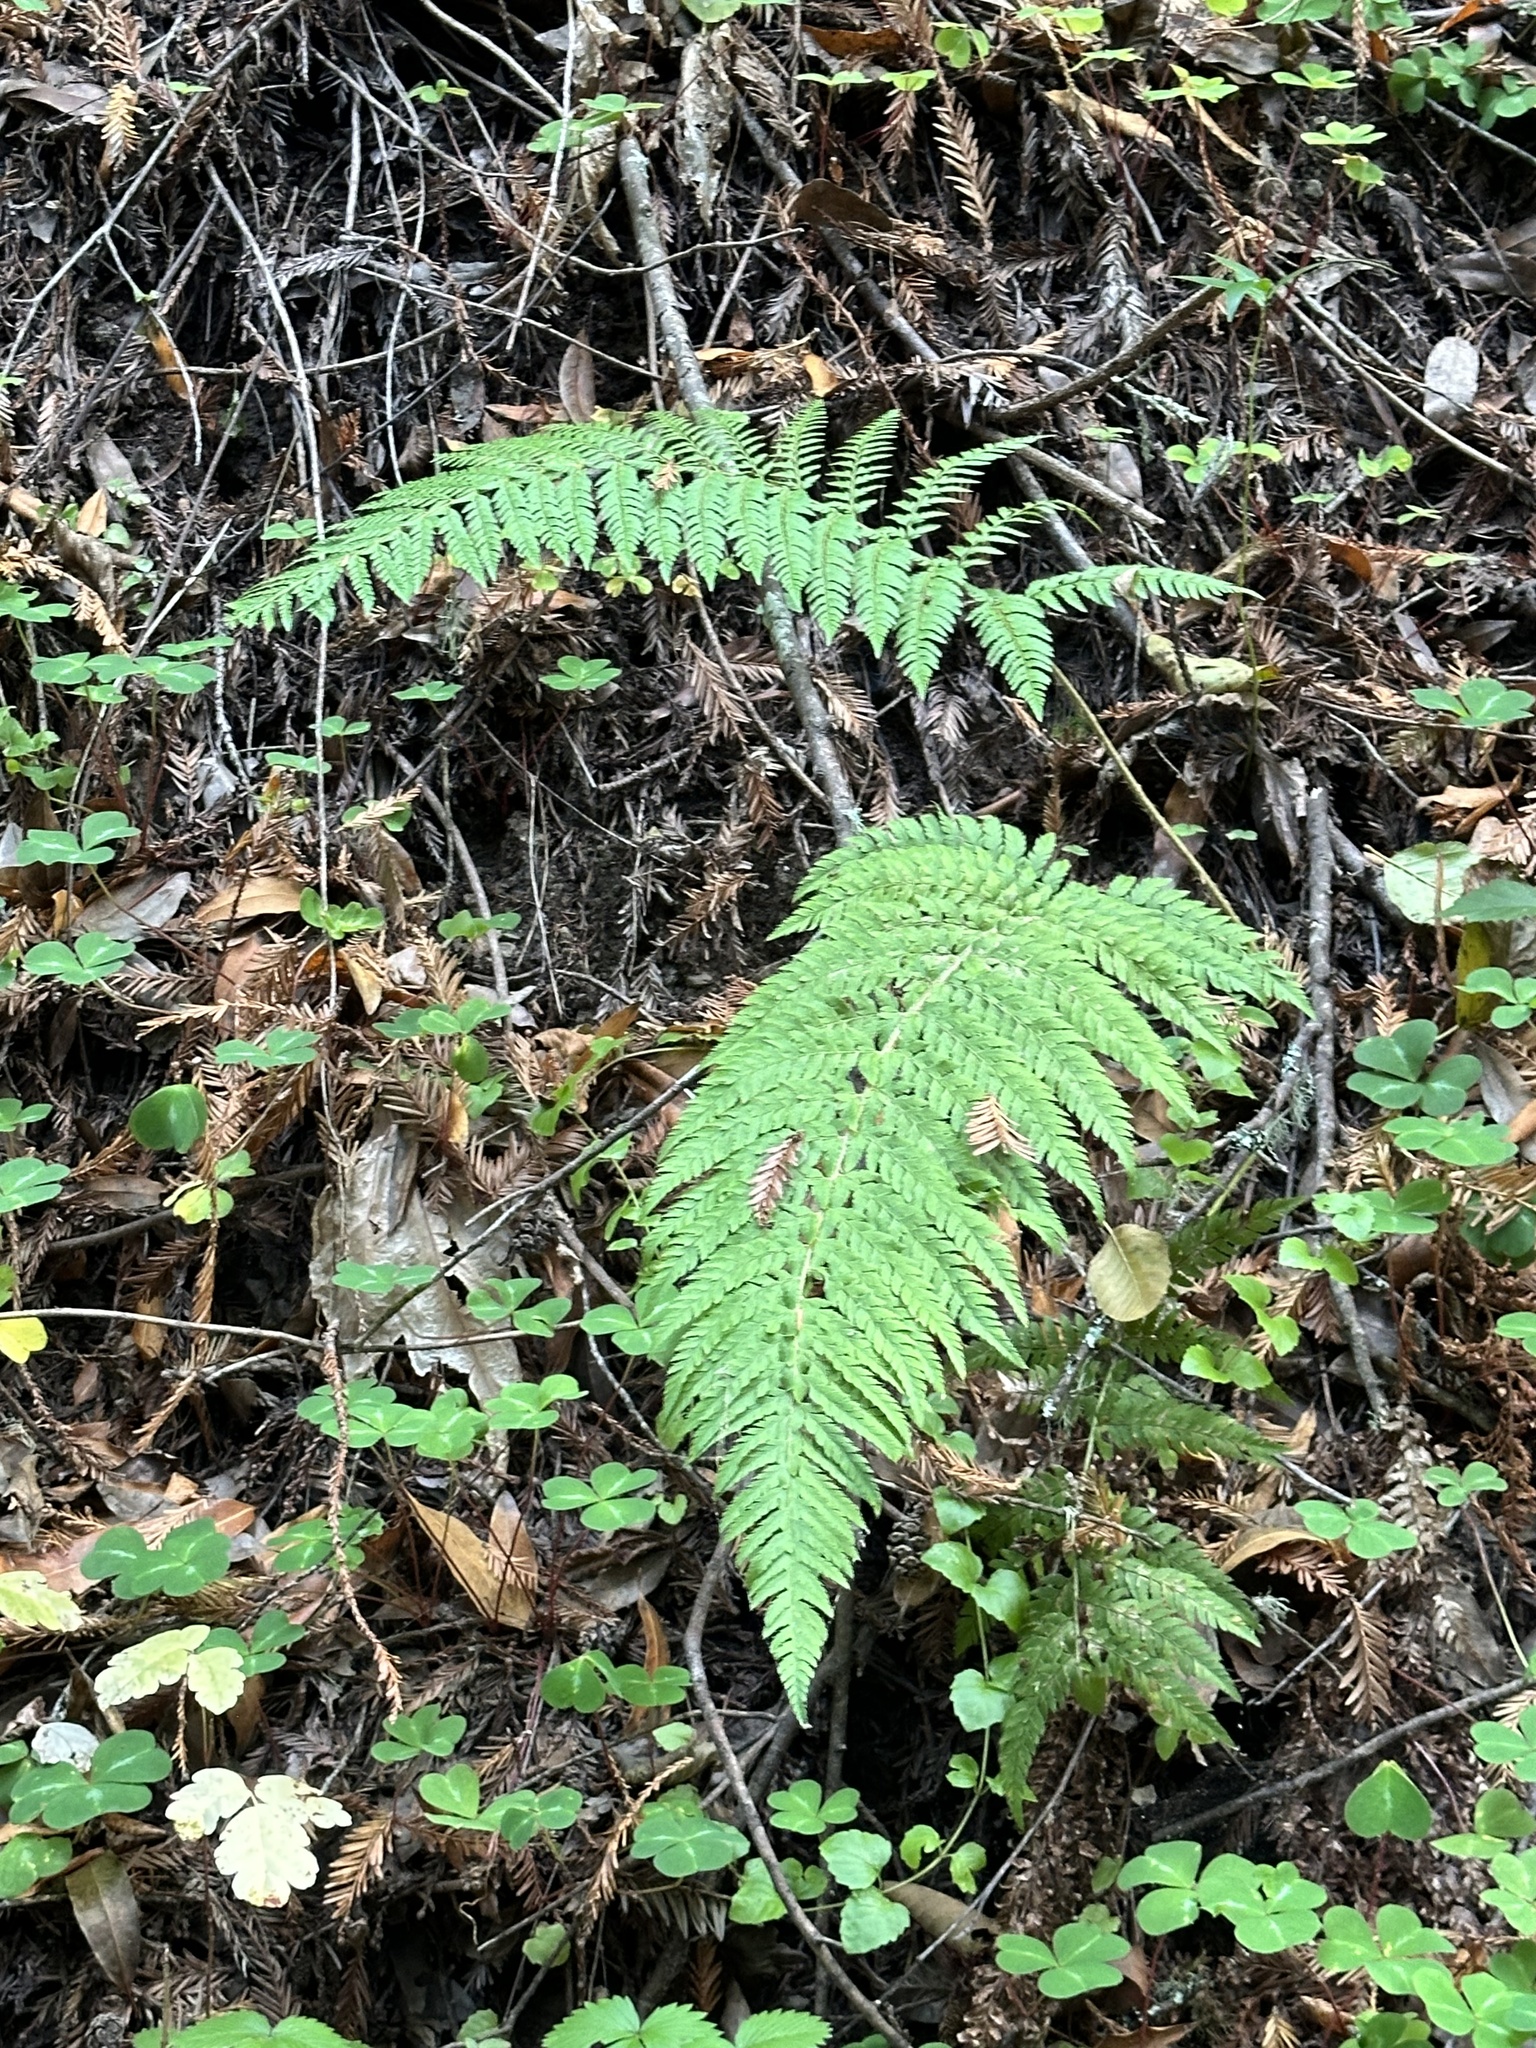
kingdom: Plantae
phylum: Tracheophyta
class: Polypodiopsida
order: Polypodiales
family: Dryopteridaceae
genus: Polystichum
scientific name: Polystichum dudleyi
